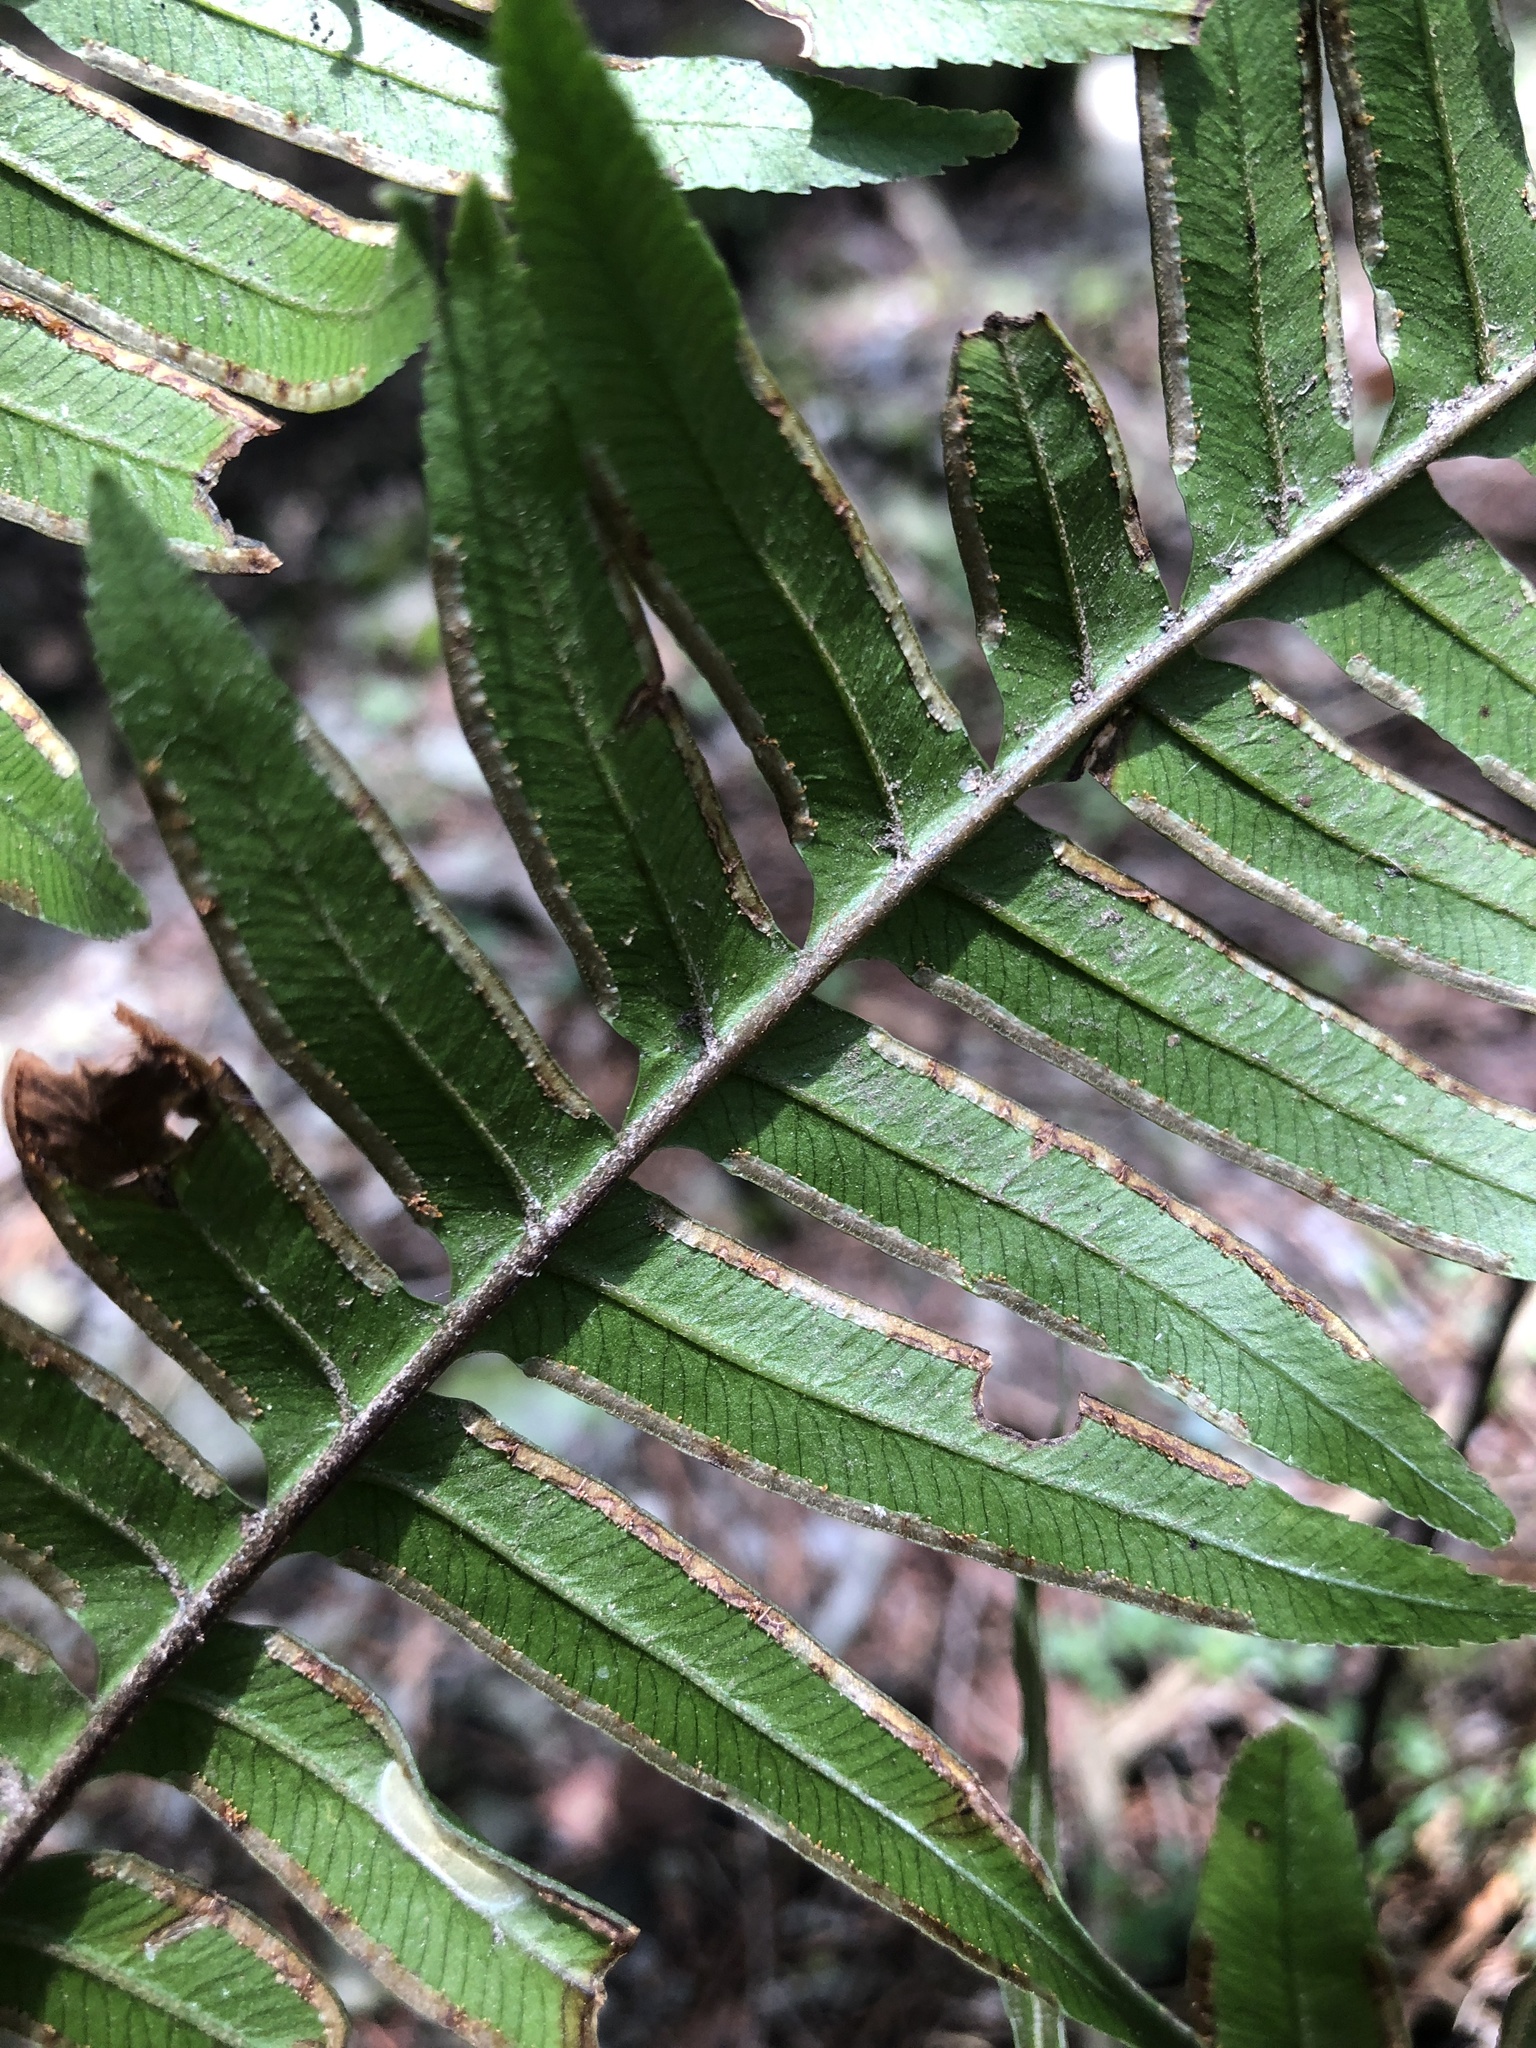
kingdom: Plantae
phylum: Tracheophyta
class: Polypodiopsida
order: Polypodiales
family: Pteridaceae
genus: Pteris
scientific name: Pteris terminalis
